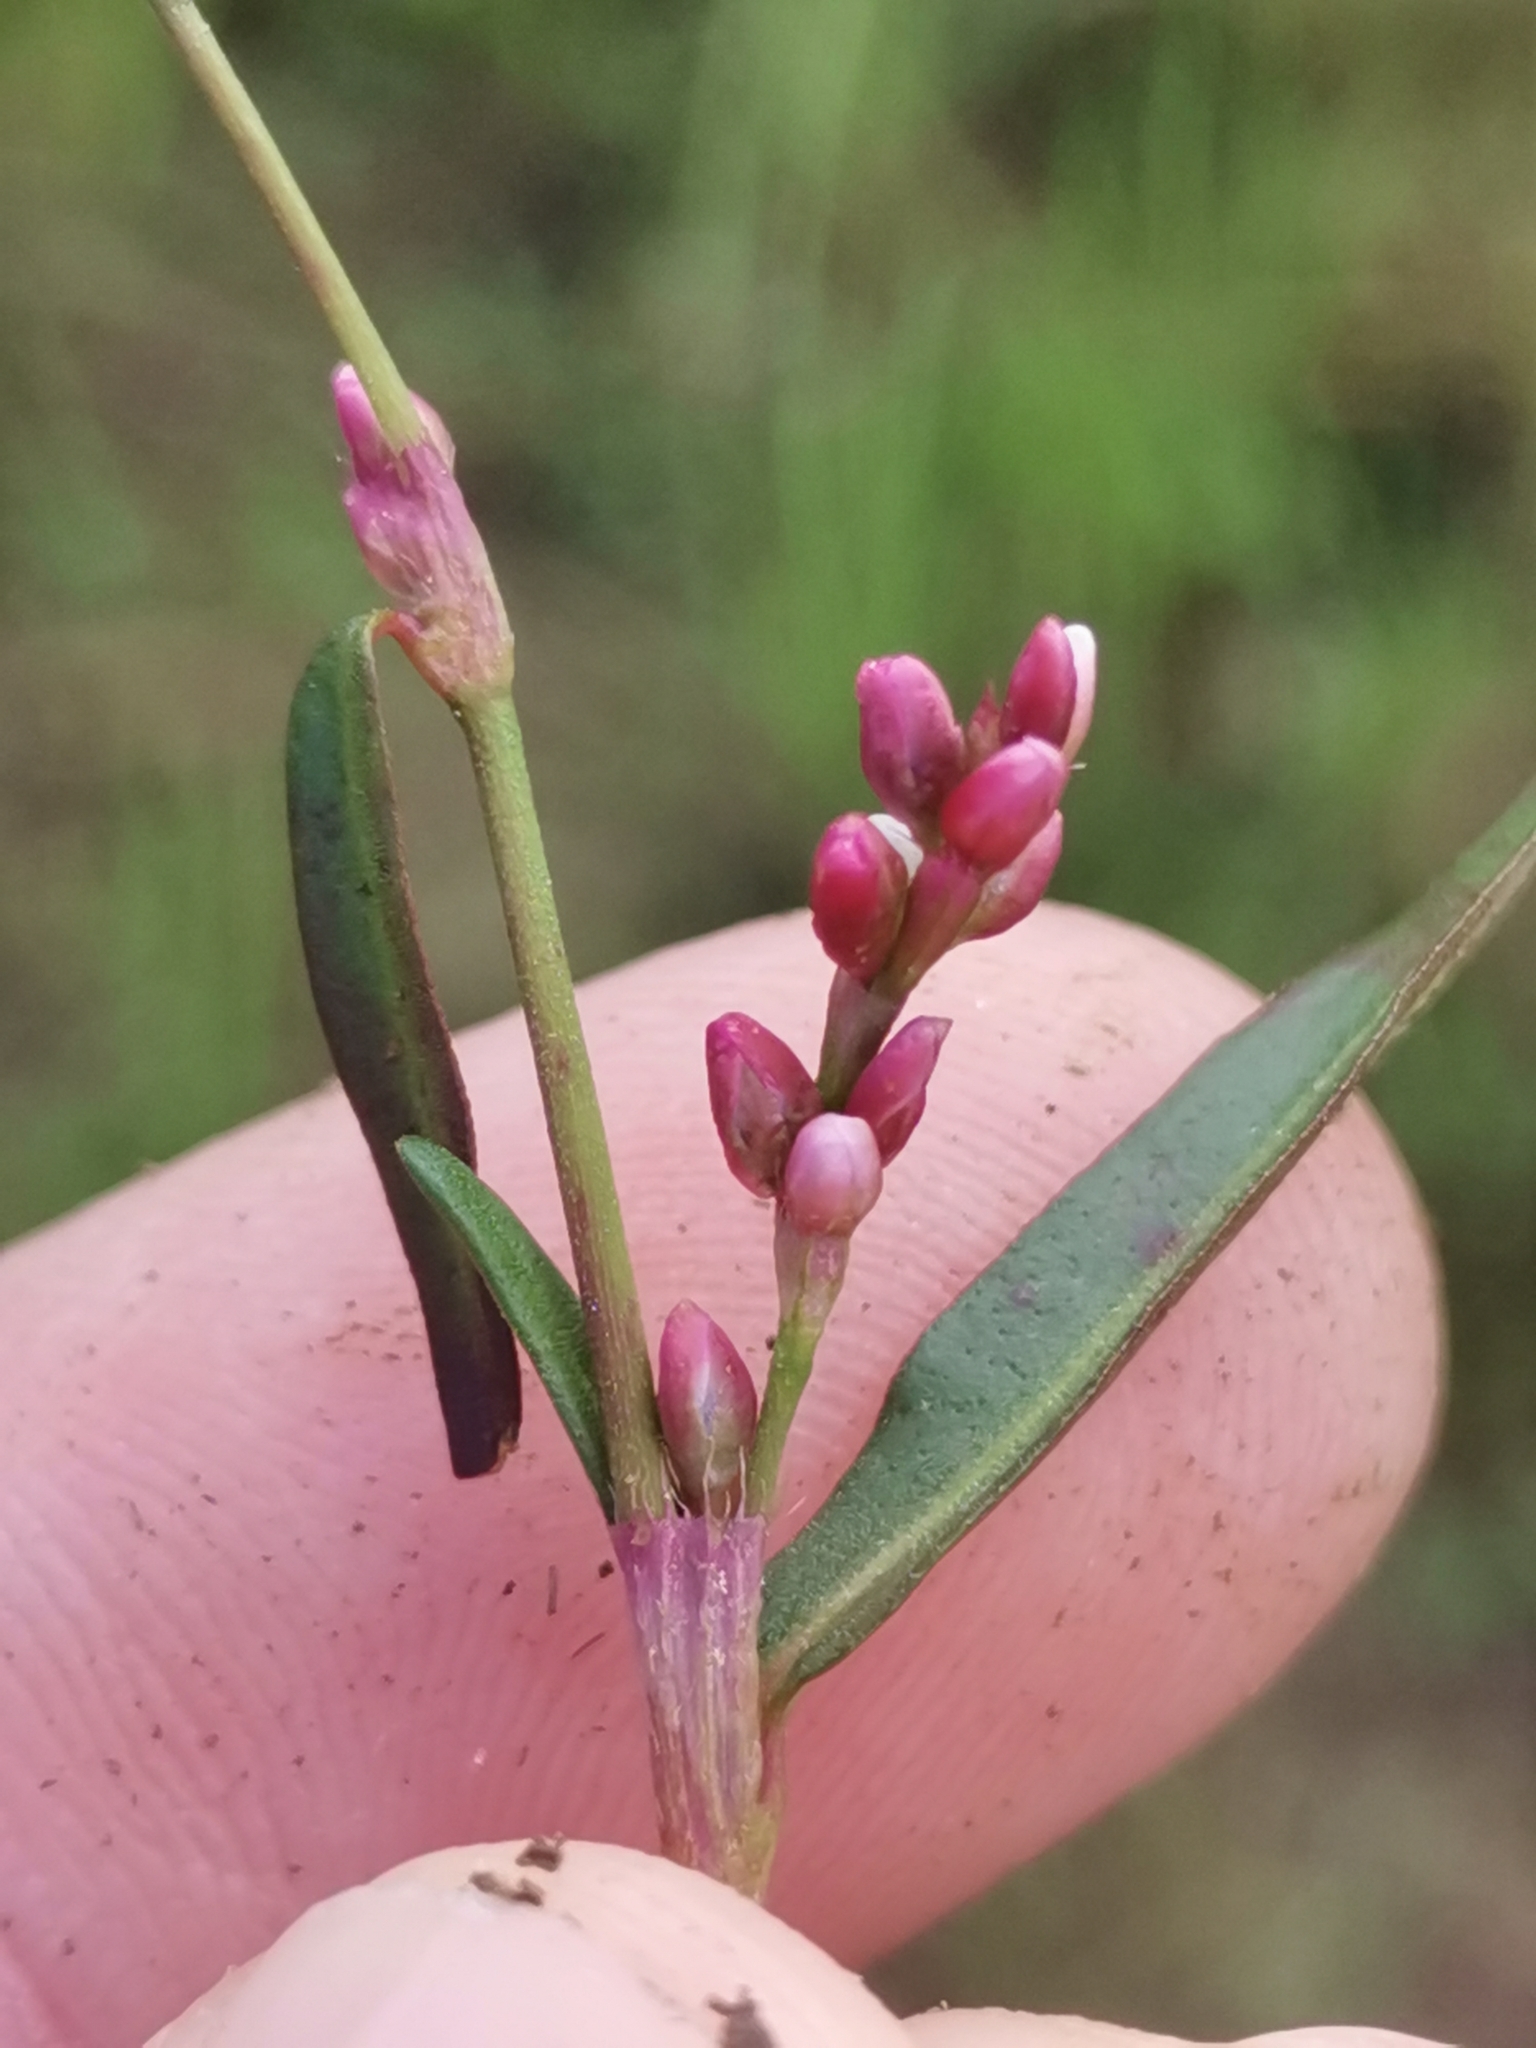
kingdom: Plantae
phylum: Tracheophyta
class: Magnoliopsida
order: Caryophyllales
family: Polygonaceae
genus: Persicaria
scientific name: Persicaria minor
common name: Small water-pepper
